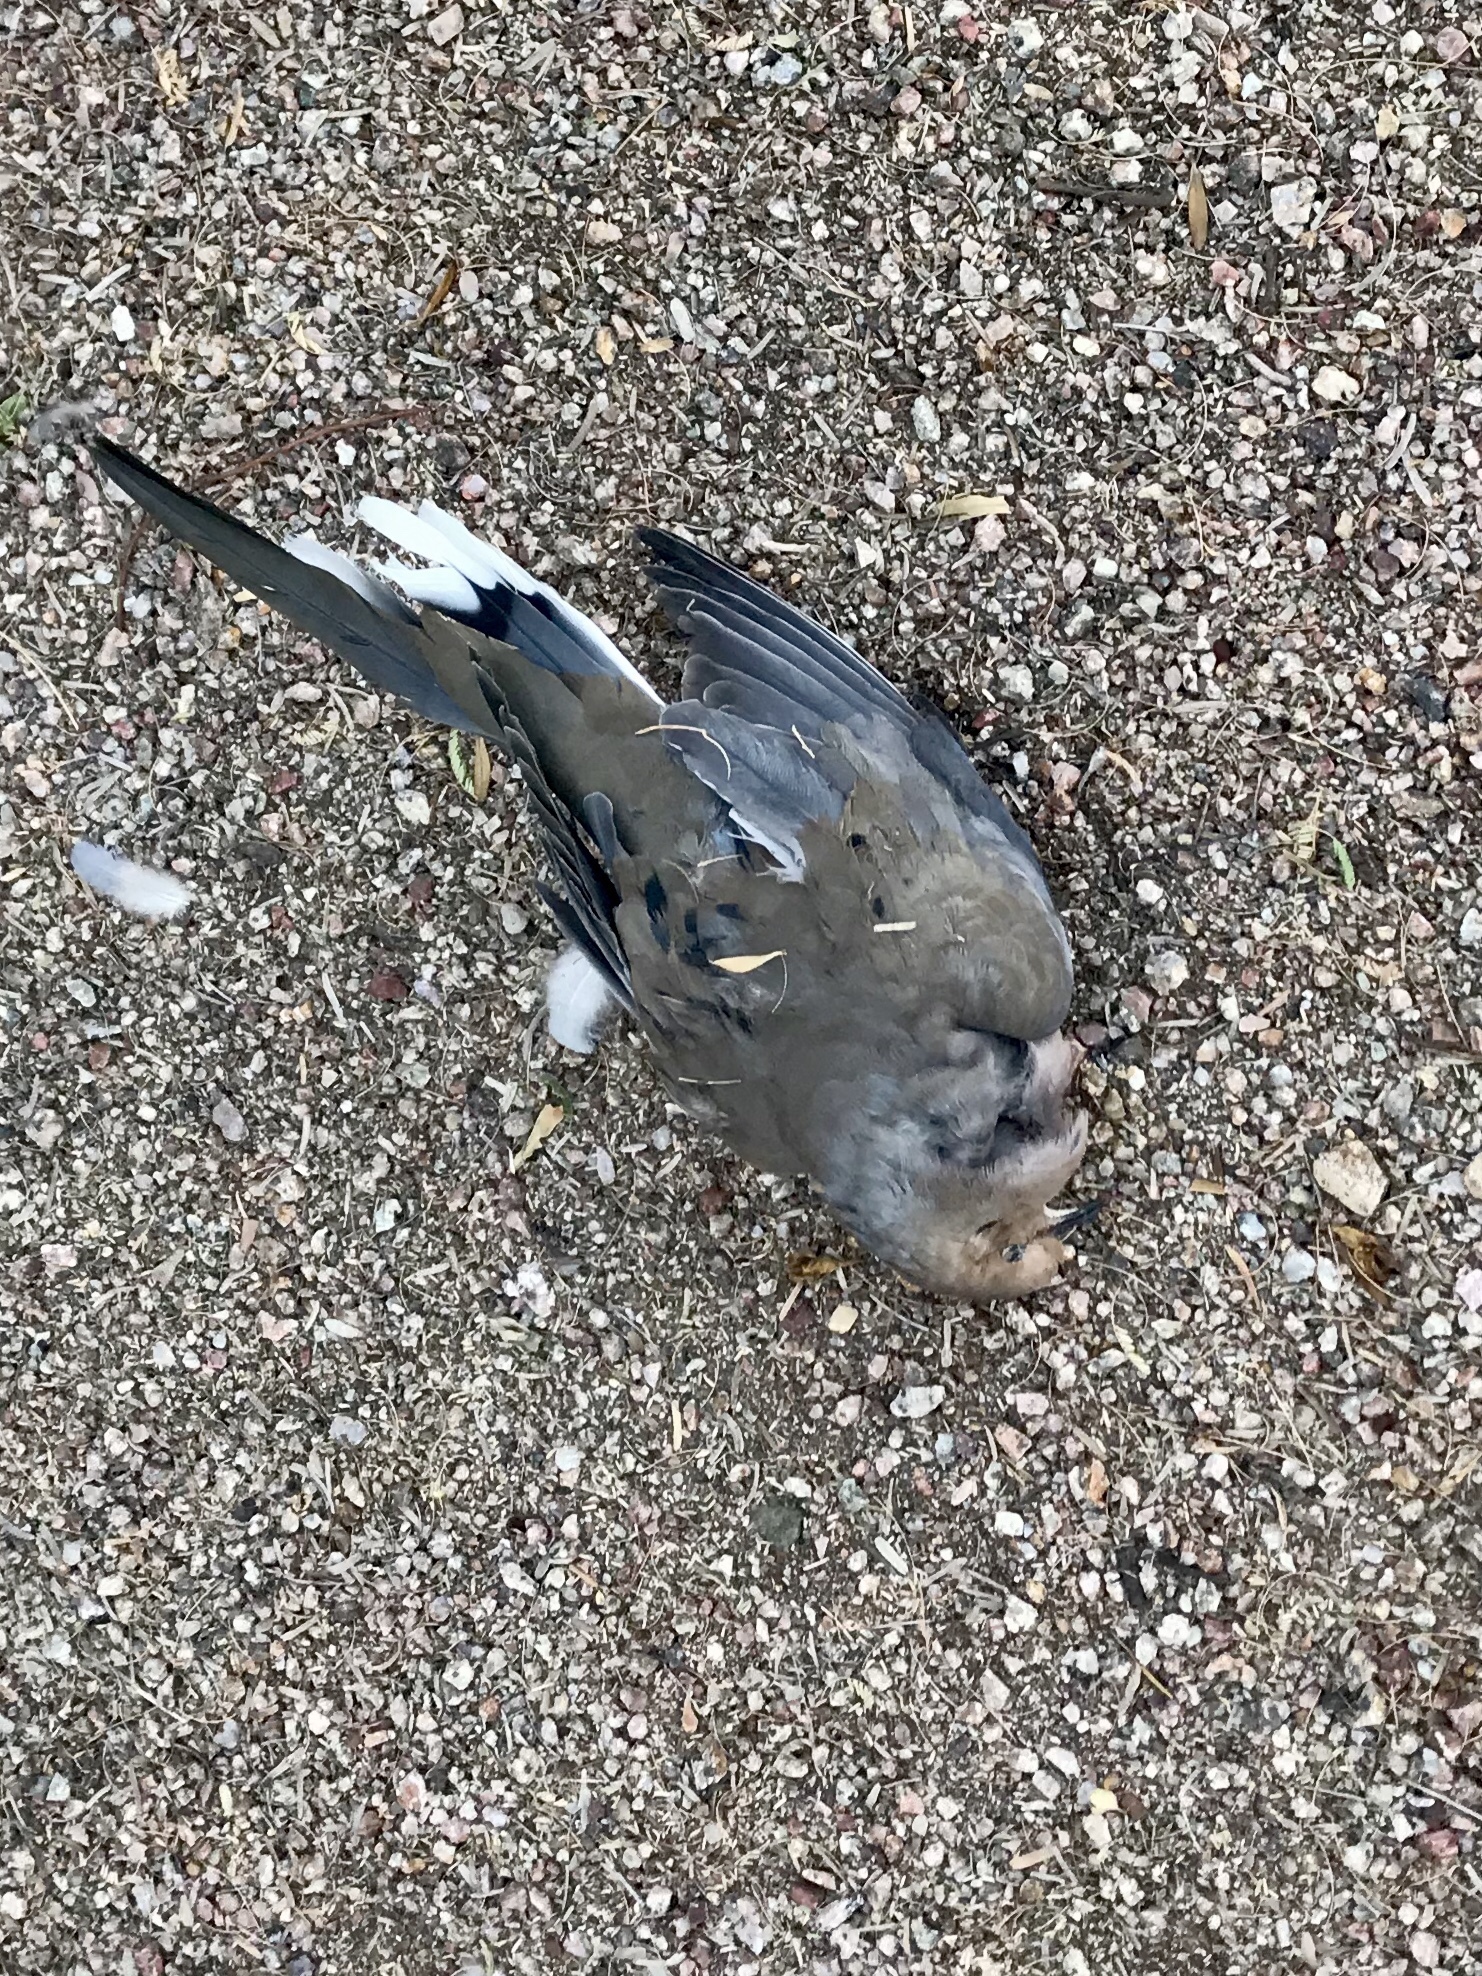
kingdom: Animalia
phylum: Chordata
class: Aves
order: Columbiformes
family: Columbidae
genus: Zenaida
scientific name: Zenaida macroura
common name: Mourning dove
